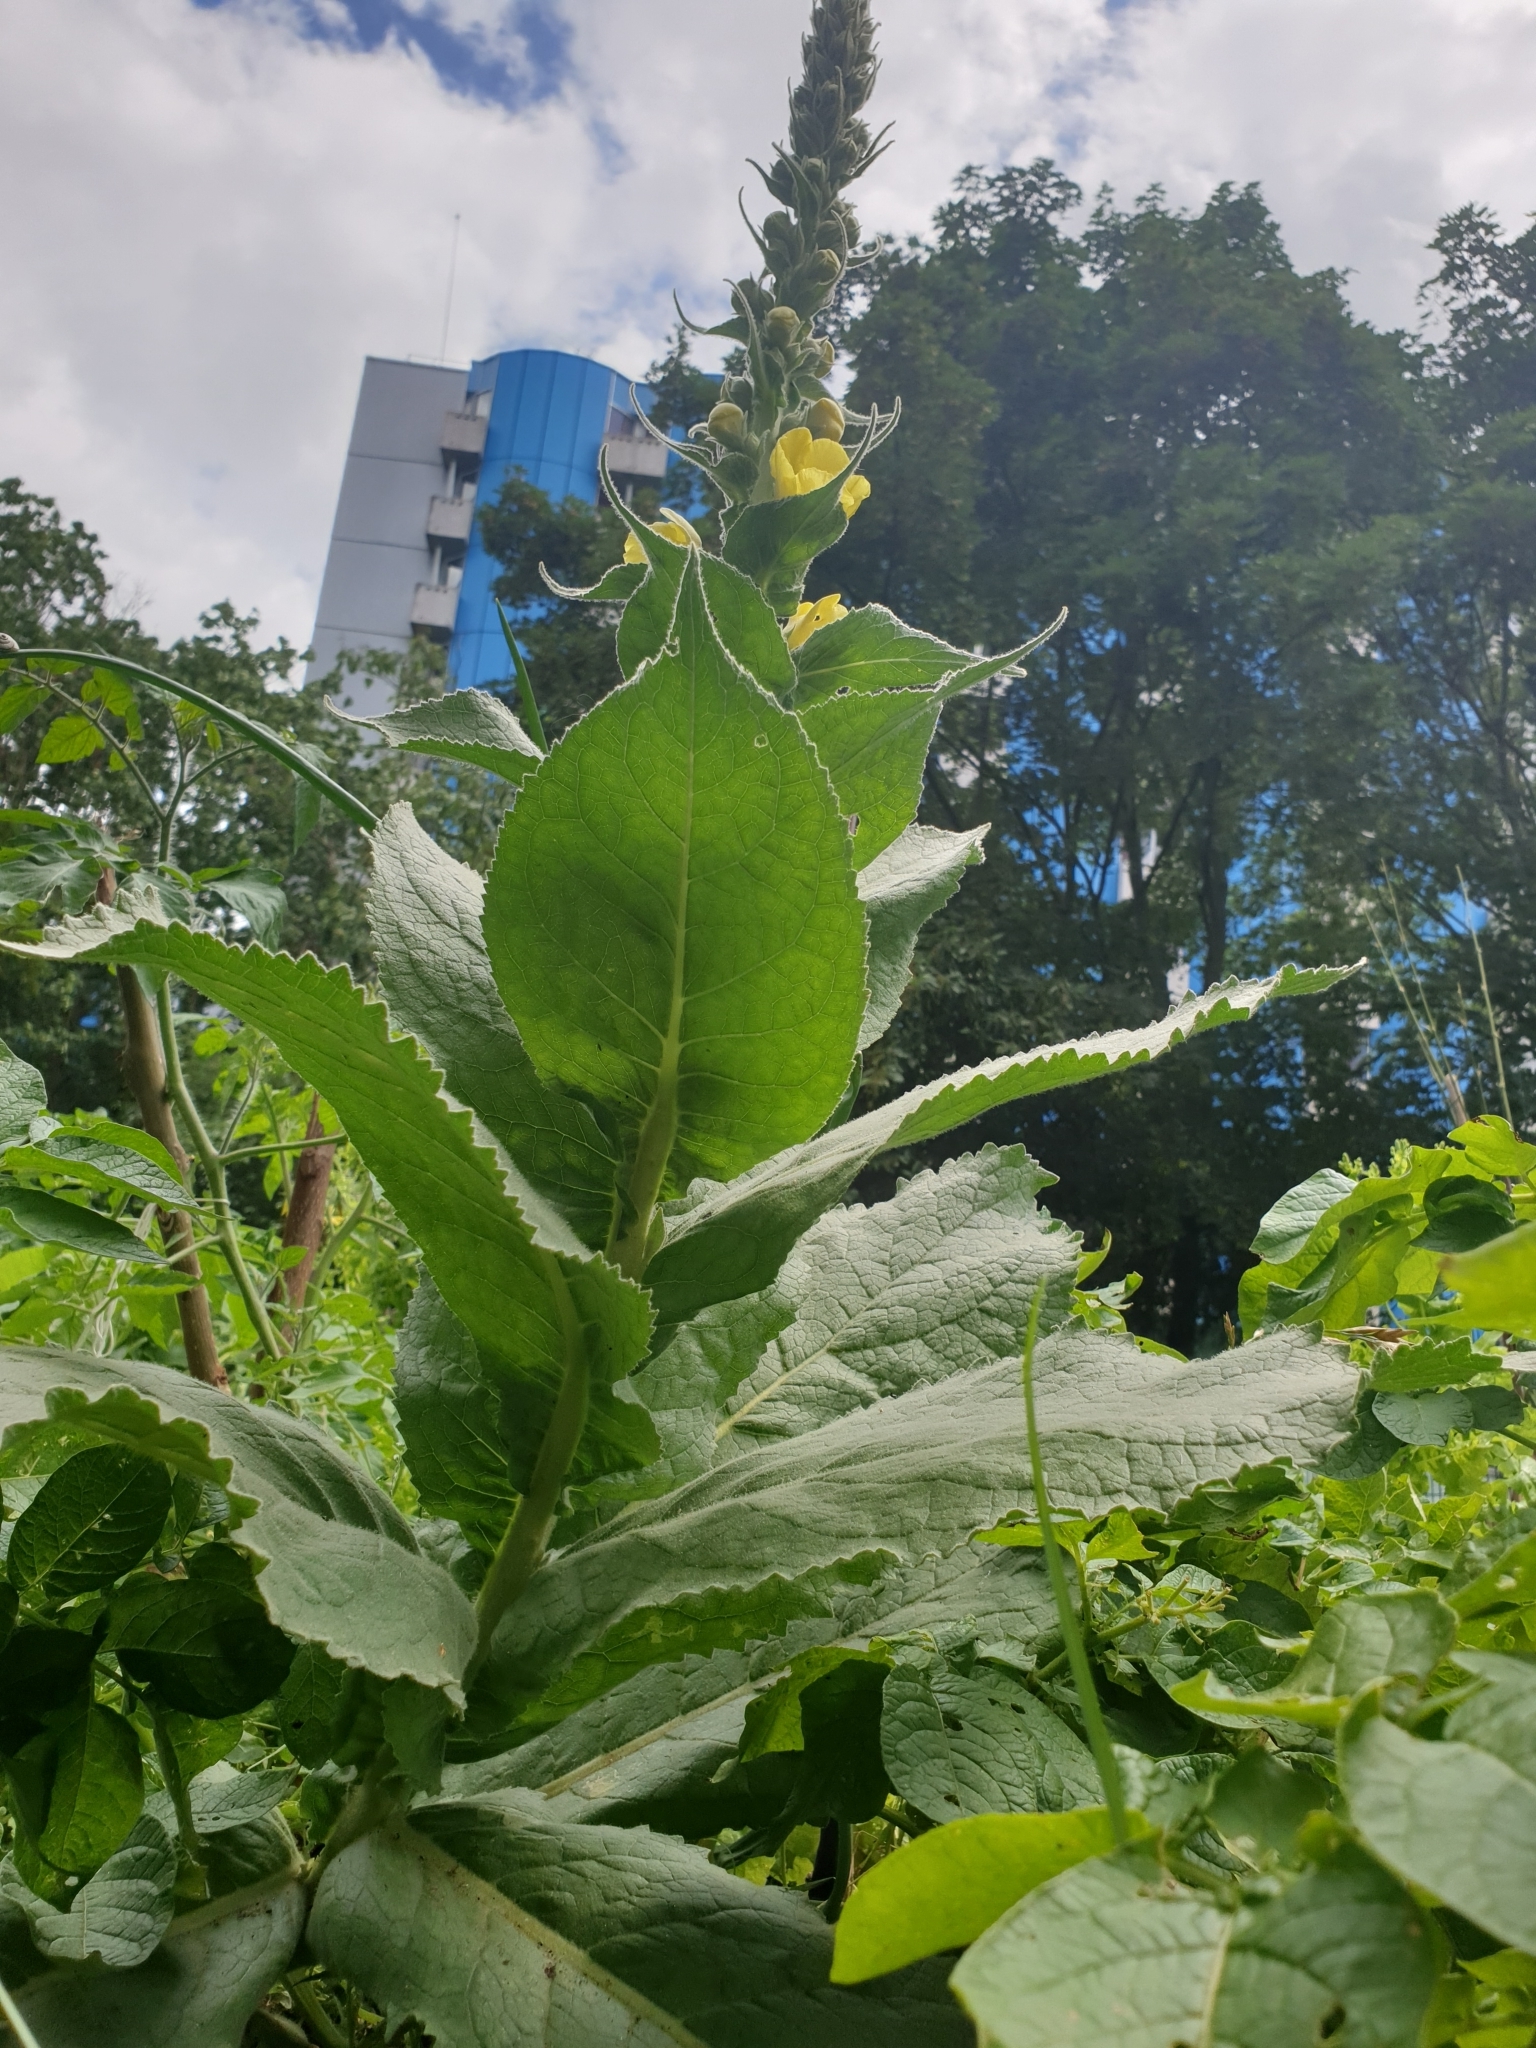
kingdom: Plantae
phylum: Tracheophyta
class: Magnoliopsida
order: Lamiales
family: Scrophulariaceae
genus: Verbascum
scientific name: Verbascum phlomoides
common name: Orange mullein
